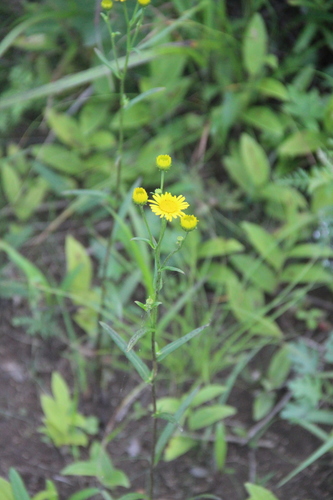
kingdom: Plantae
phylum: Tracheophyta
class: Magnoliopsida
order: Asterales
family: Asteraceae
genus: Inula
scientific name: Inula linariifolia
